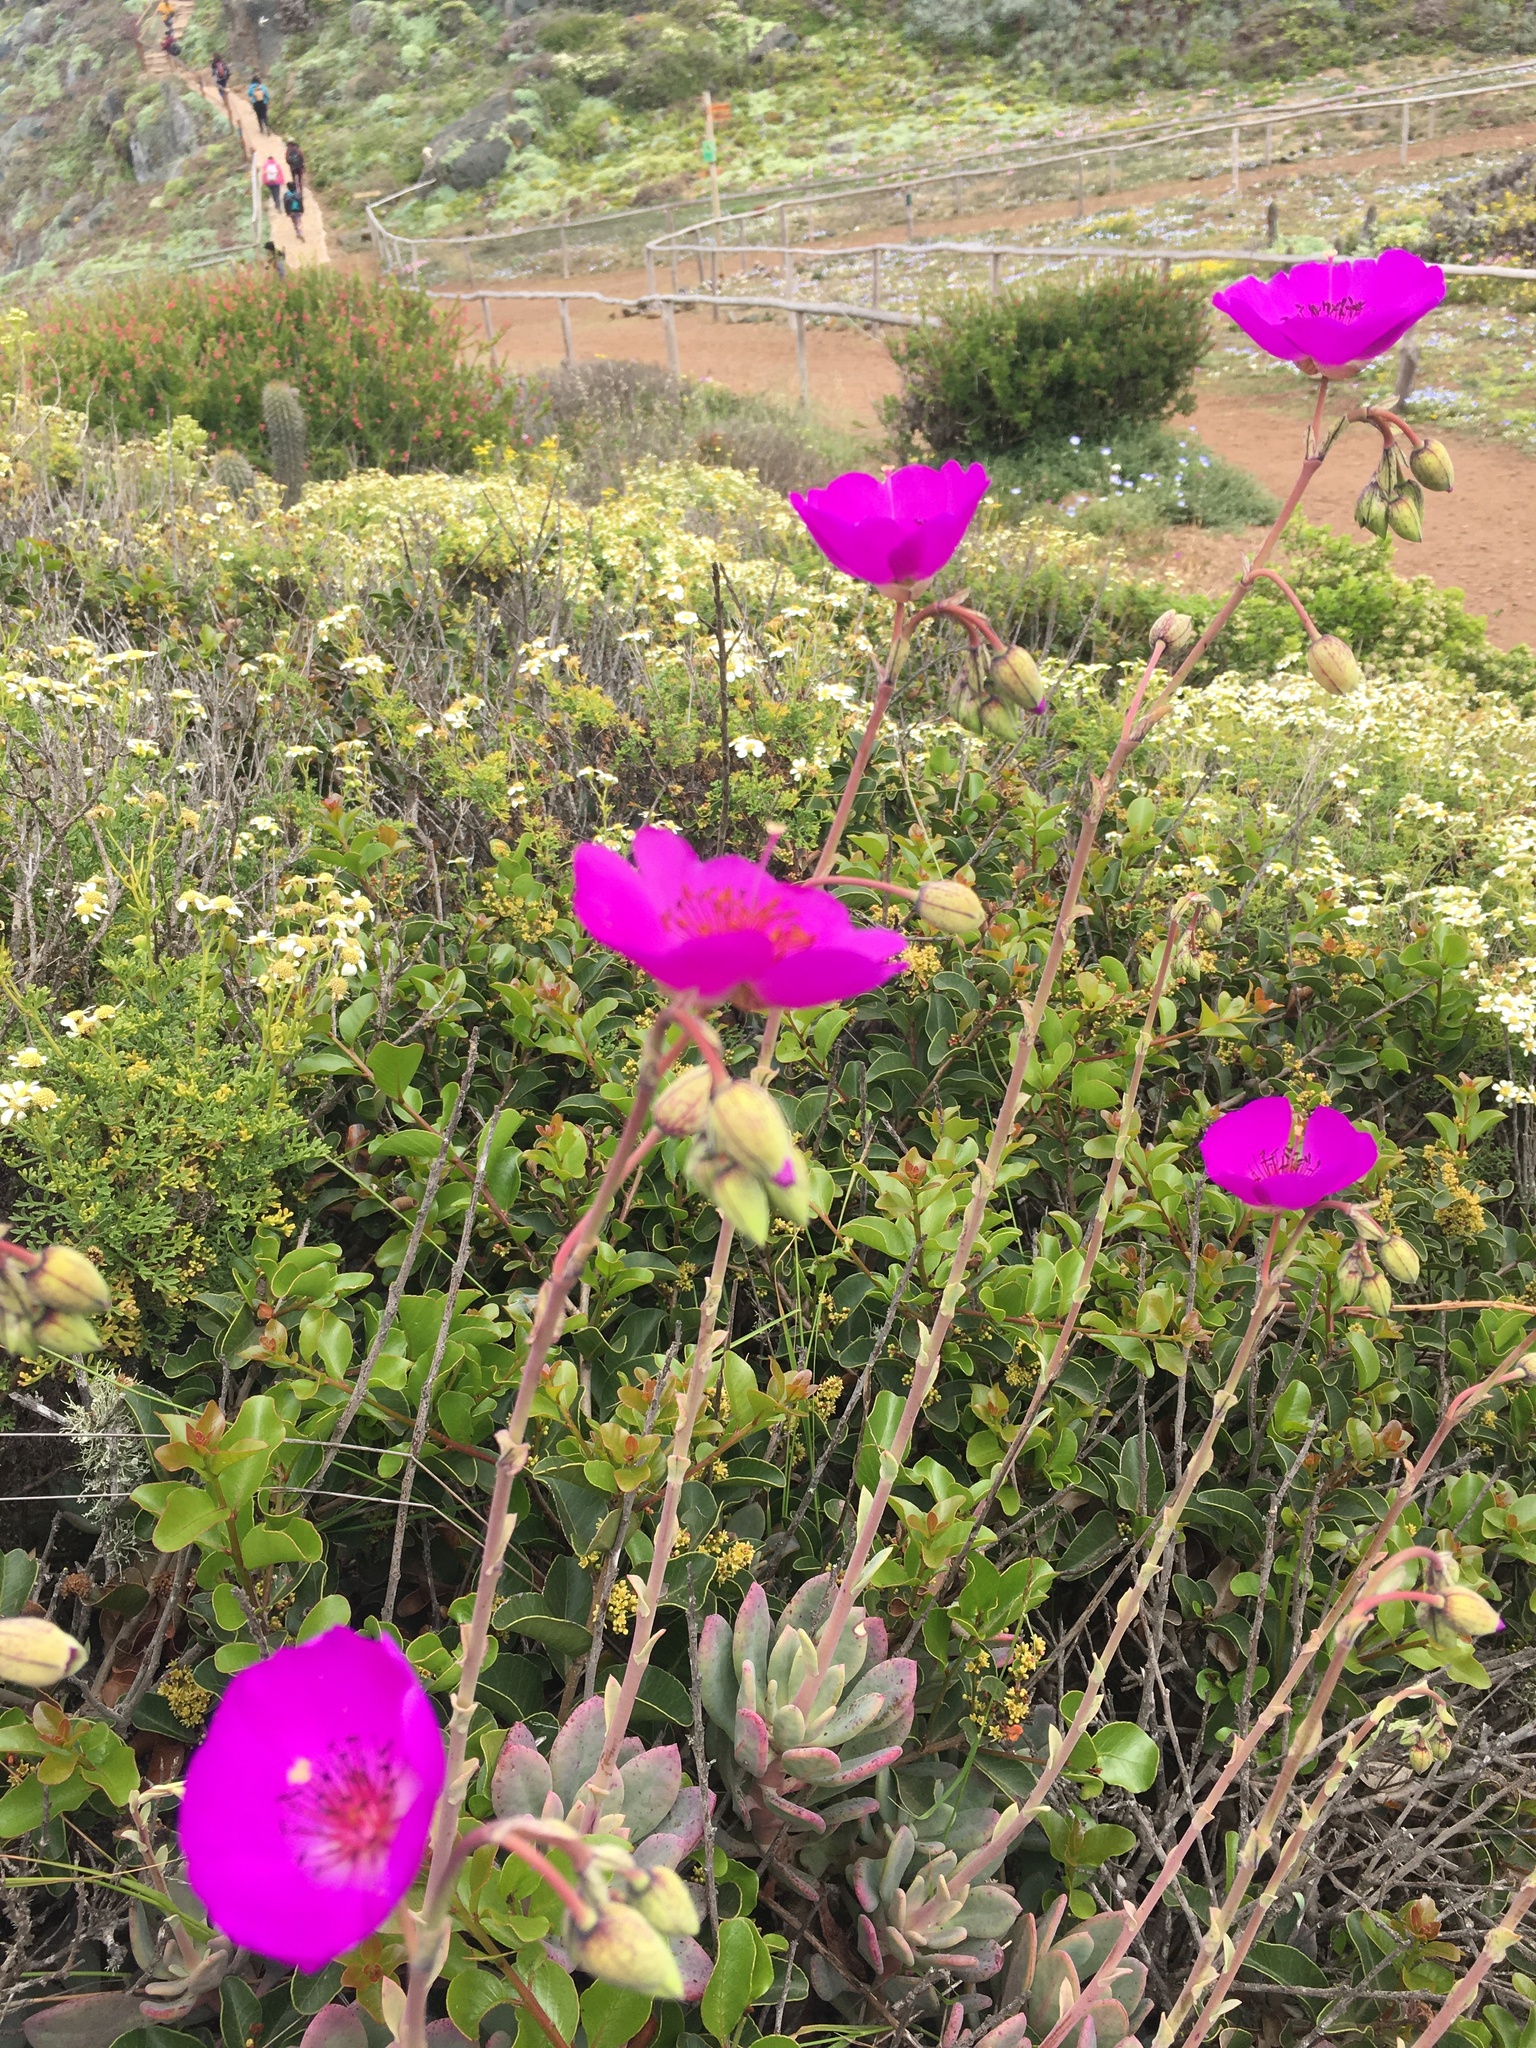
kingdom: Plantae
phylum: Tracheophyta
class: Magnoliopsida
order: Caryophyllales
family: Montiaceae
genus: Cistanthe
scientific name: Cistanthe grandiflora
